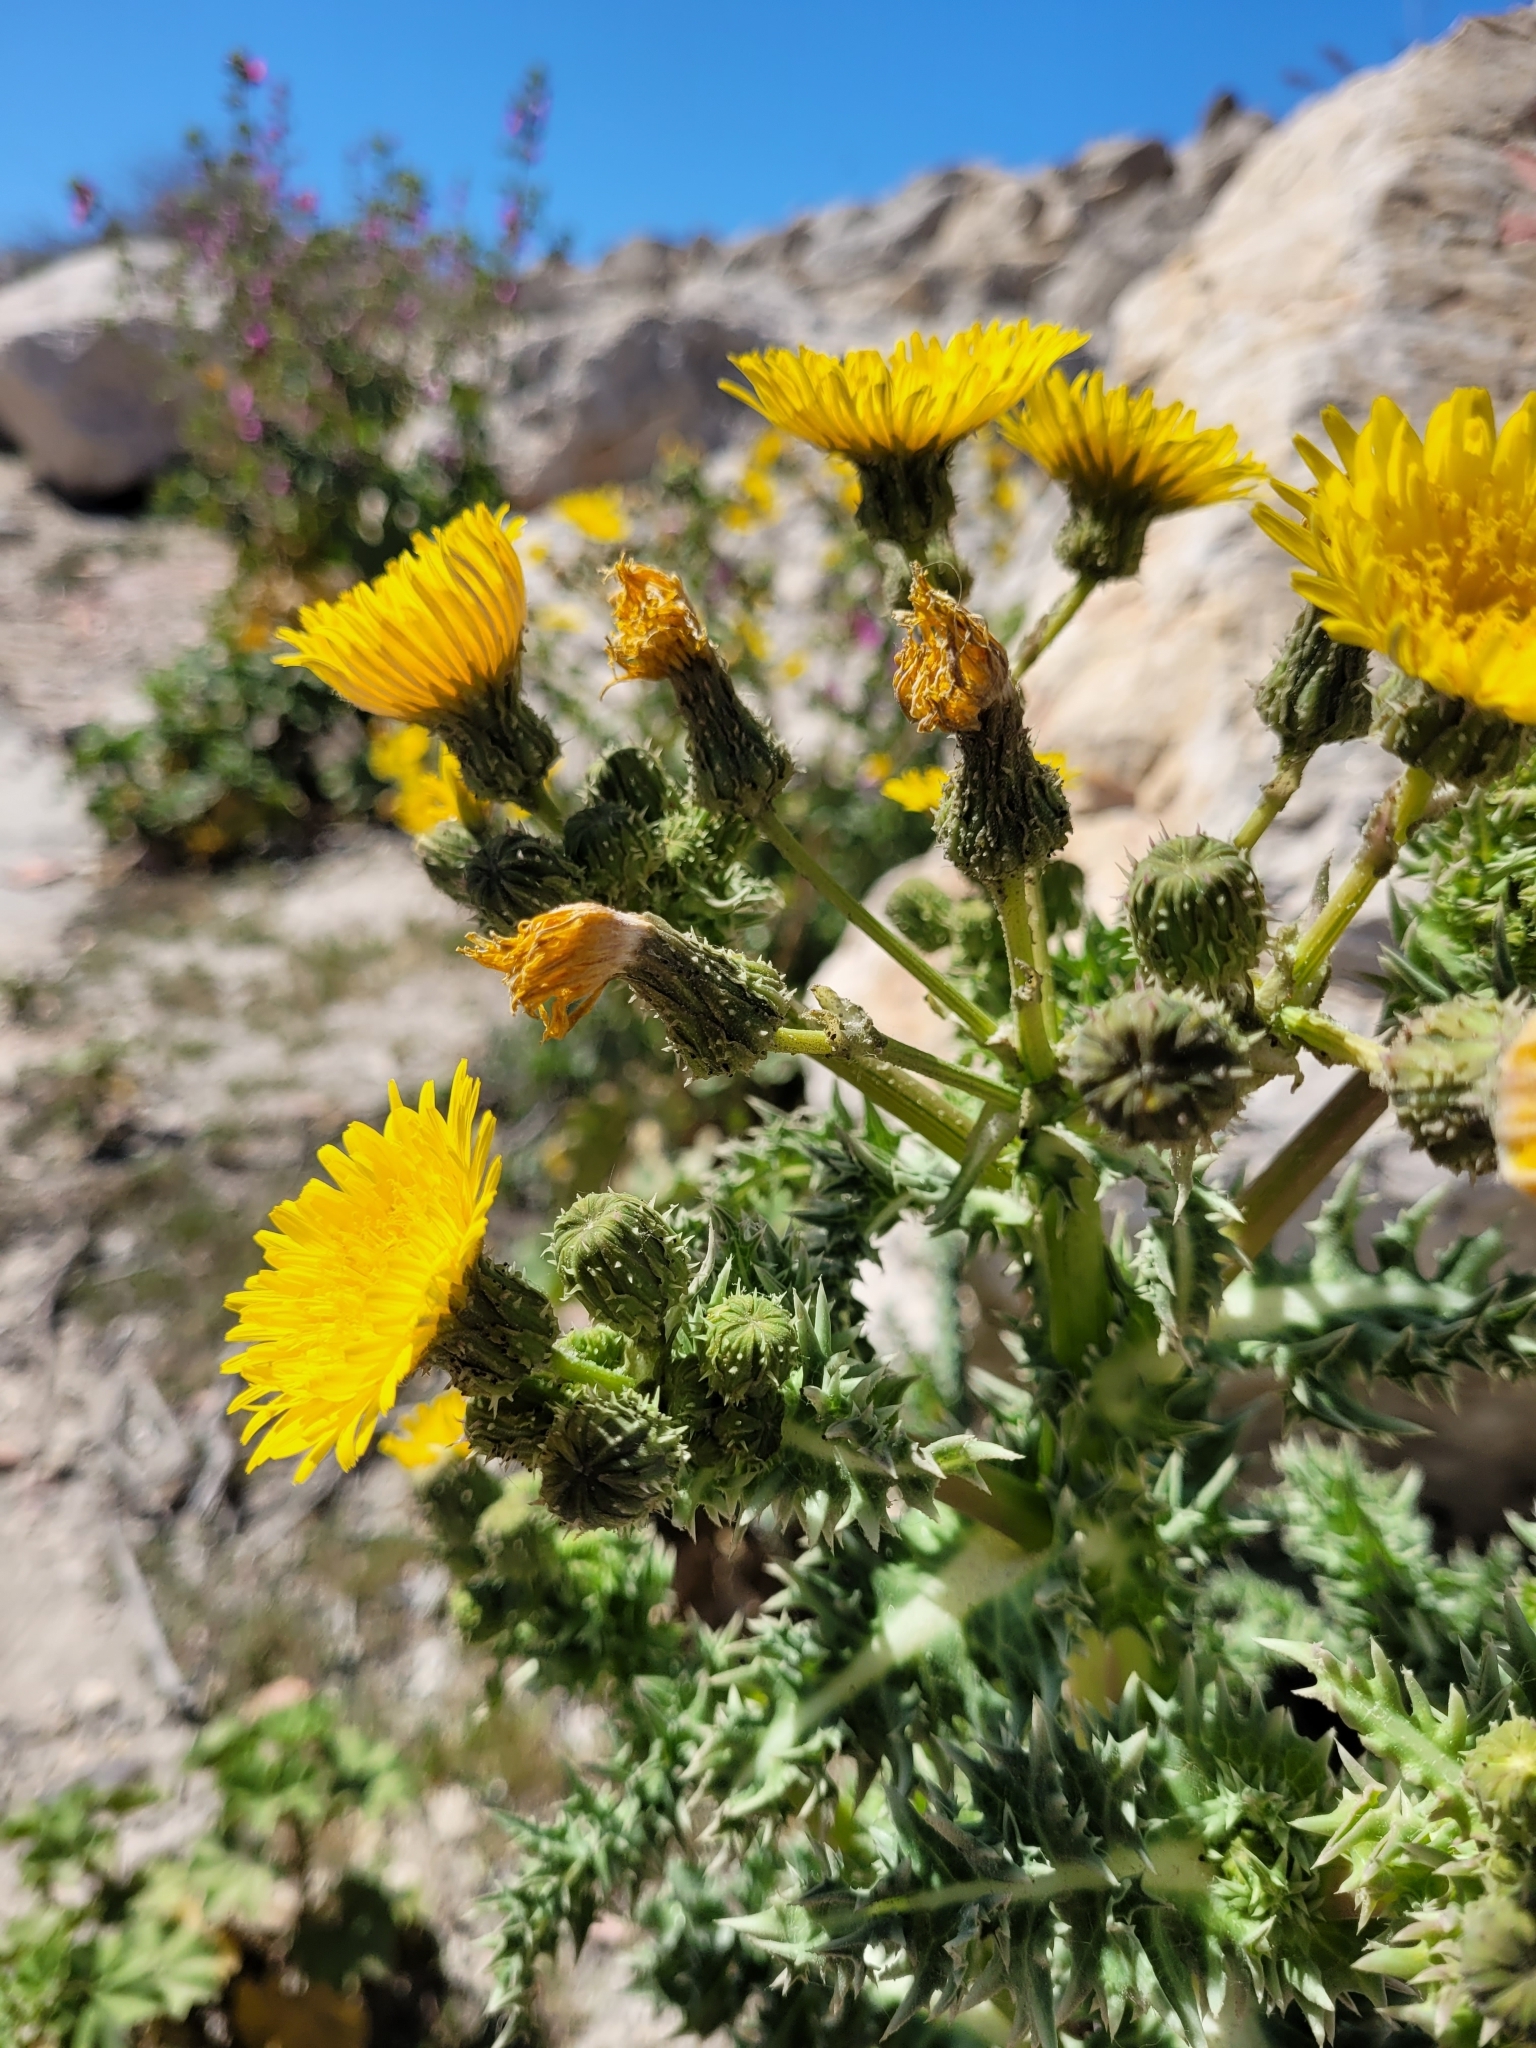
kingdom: Plantae
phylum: Tracheophyta
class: Magnoliopsida
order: Asterales
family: Asteraceae
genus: Sonchus
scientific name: Sonchus asper
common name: Prickly sow-thistle
